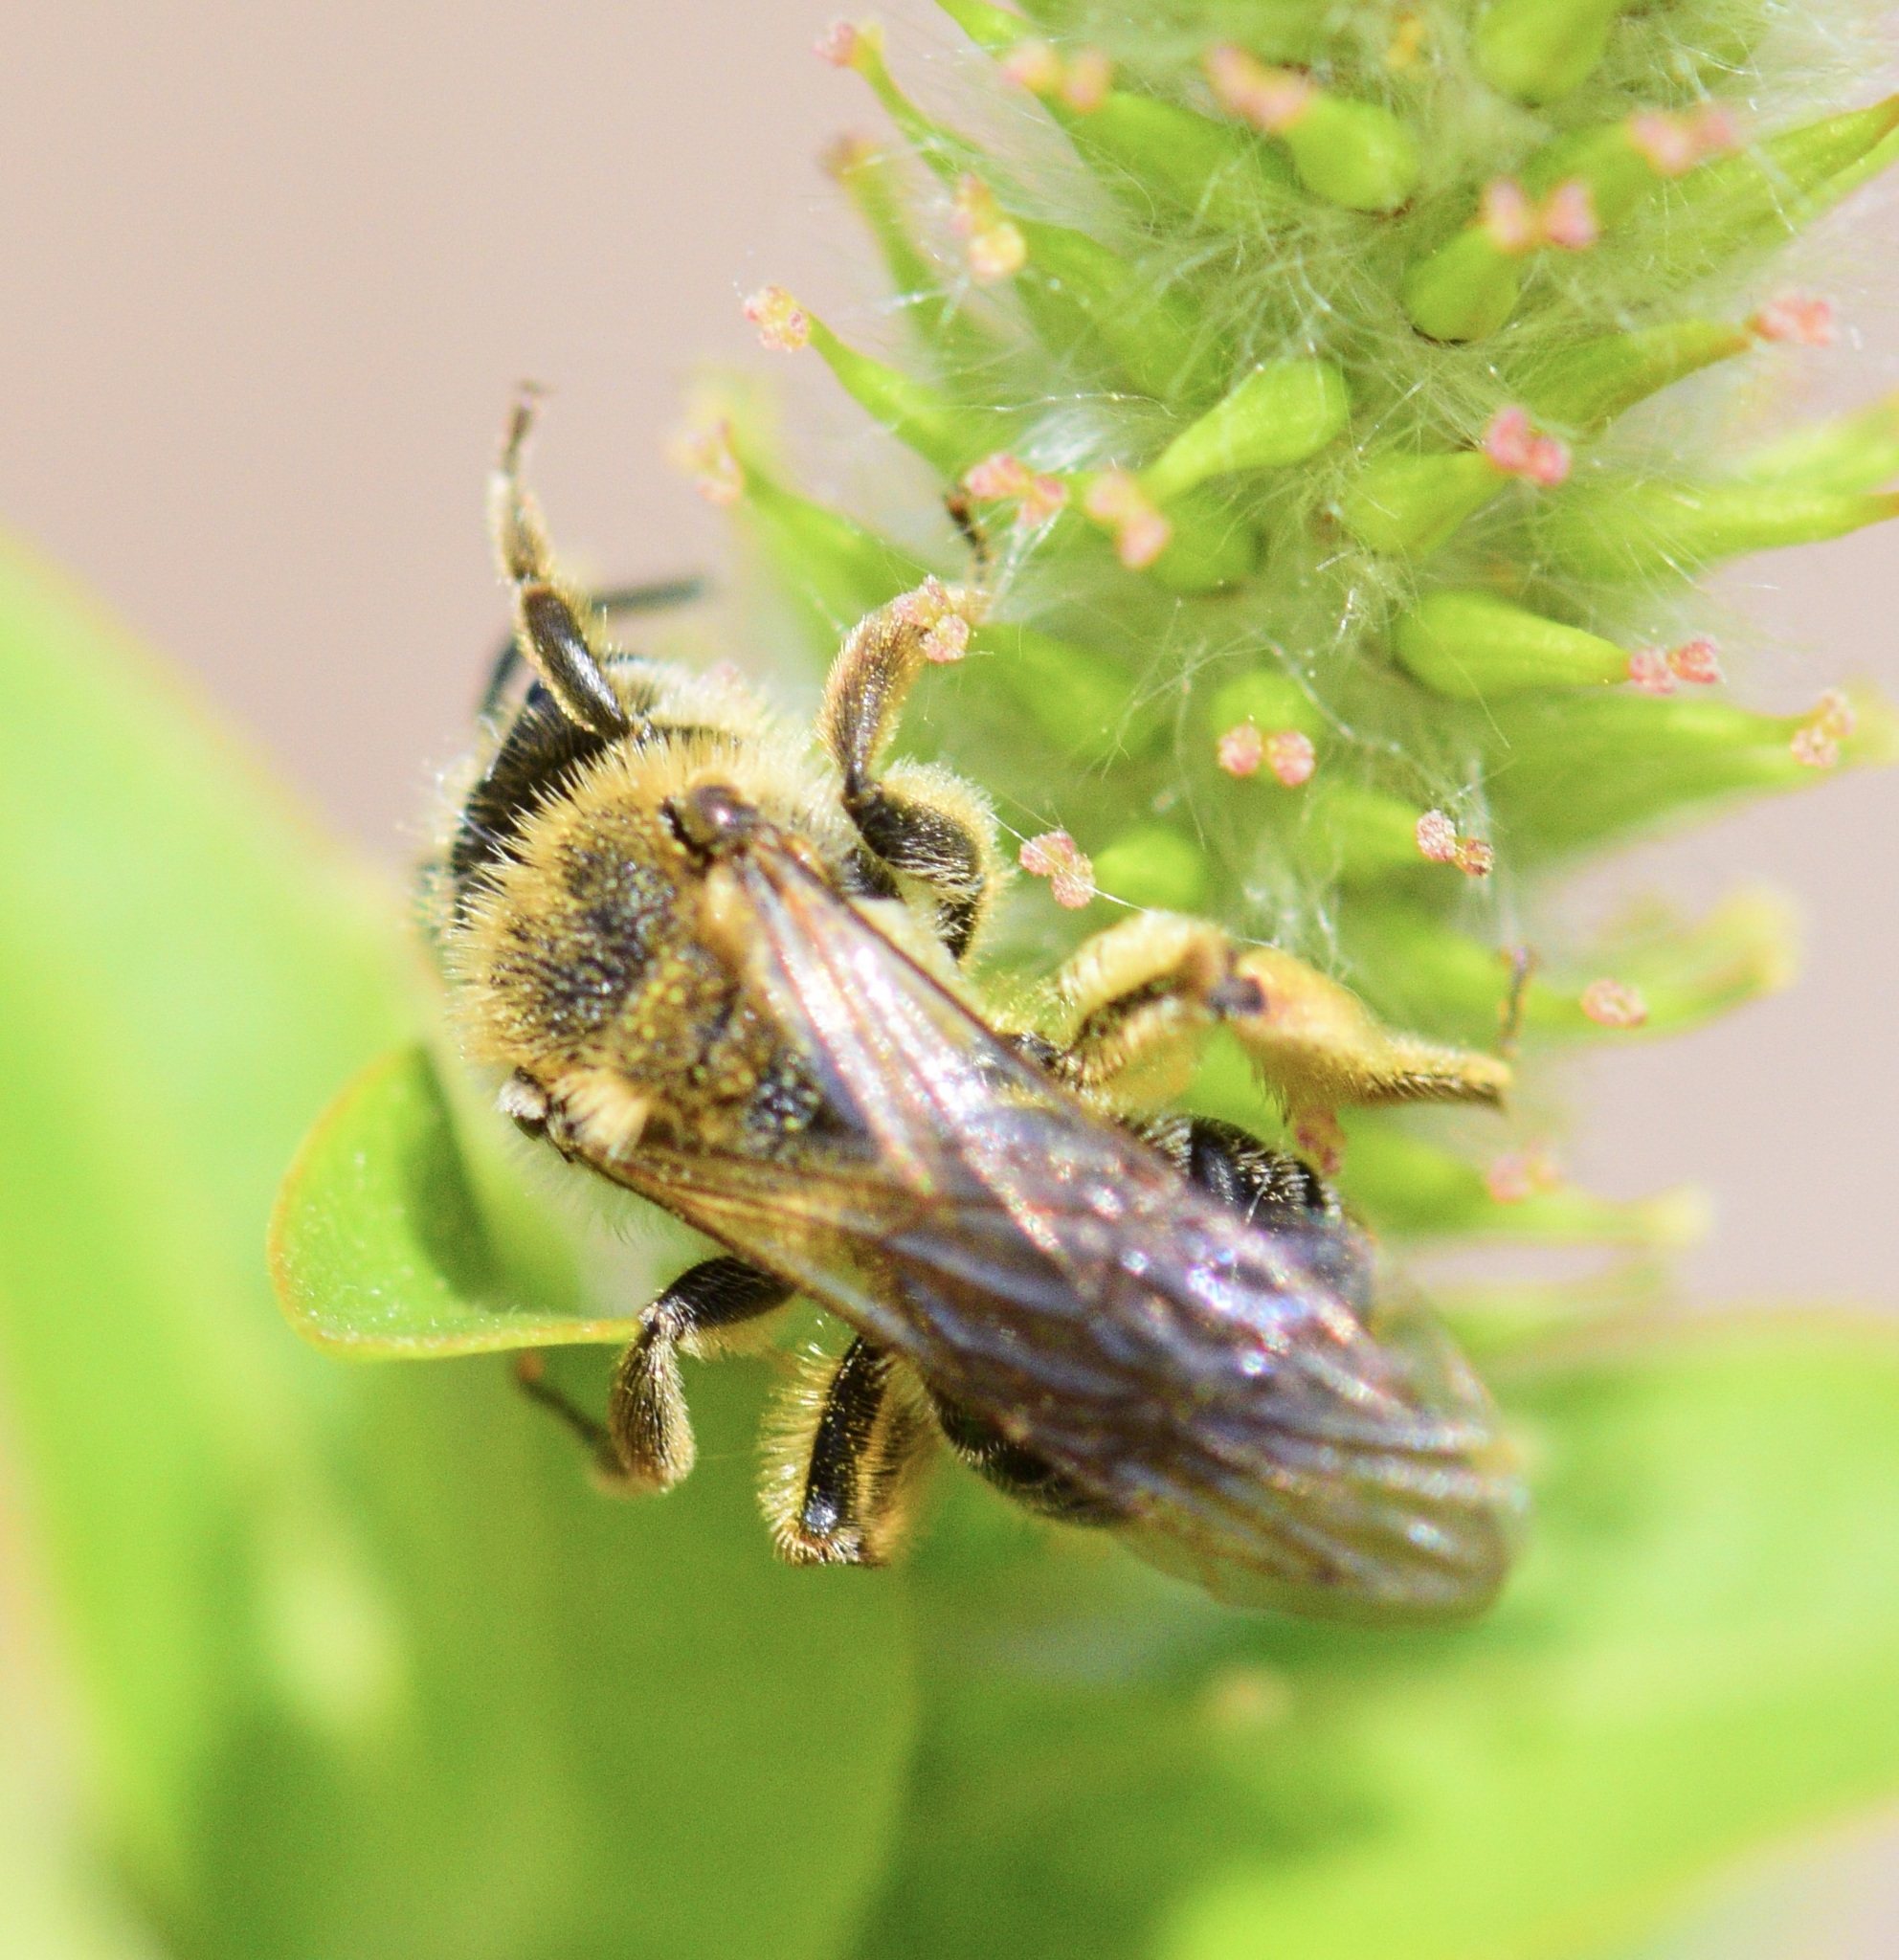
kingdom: Animalia
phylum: Arthropoda
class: Insecta
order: Hymenoptera
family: Andrenidae
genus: Andrena
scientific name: Andrena rugosa
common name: Rugose mining bee
